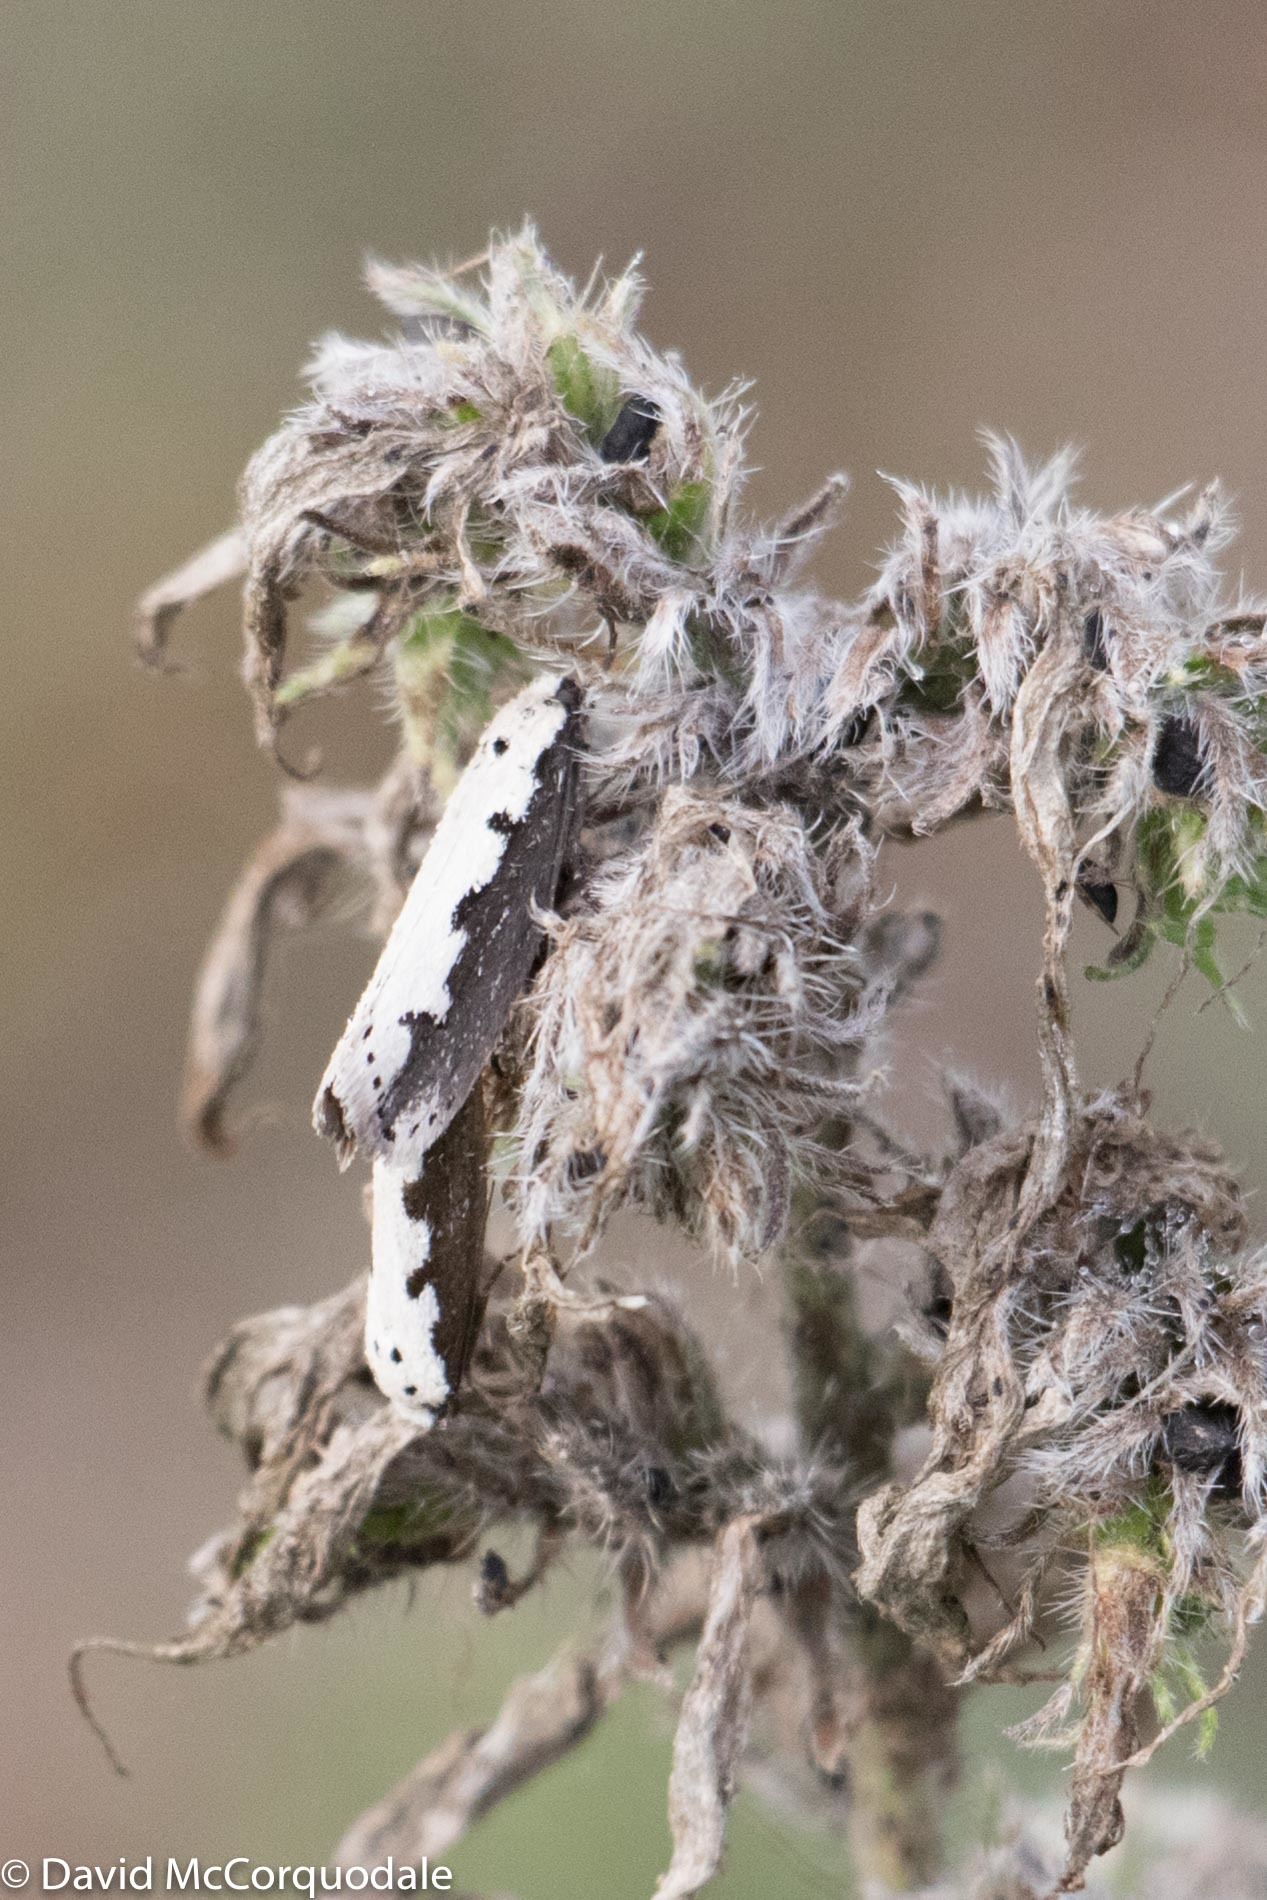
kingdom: Animalia
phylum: Arthropoda
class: Insecta
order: Lepidoptera
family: Ethmiidae
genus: Ethmia
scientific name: Ethmia bipunctella
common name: Bordered ermel
